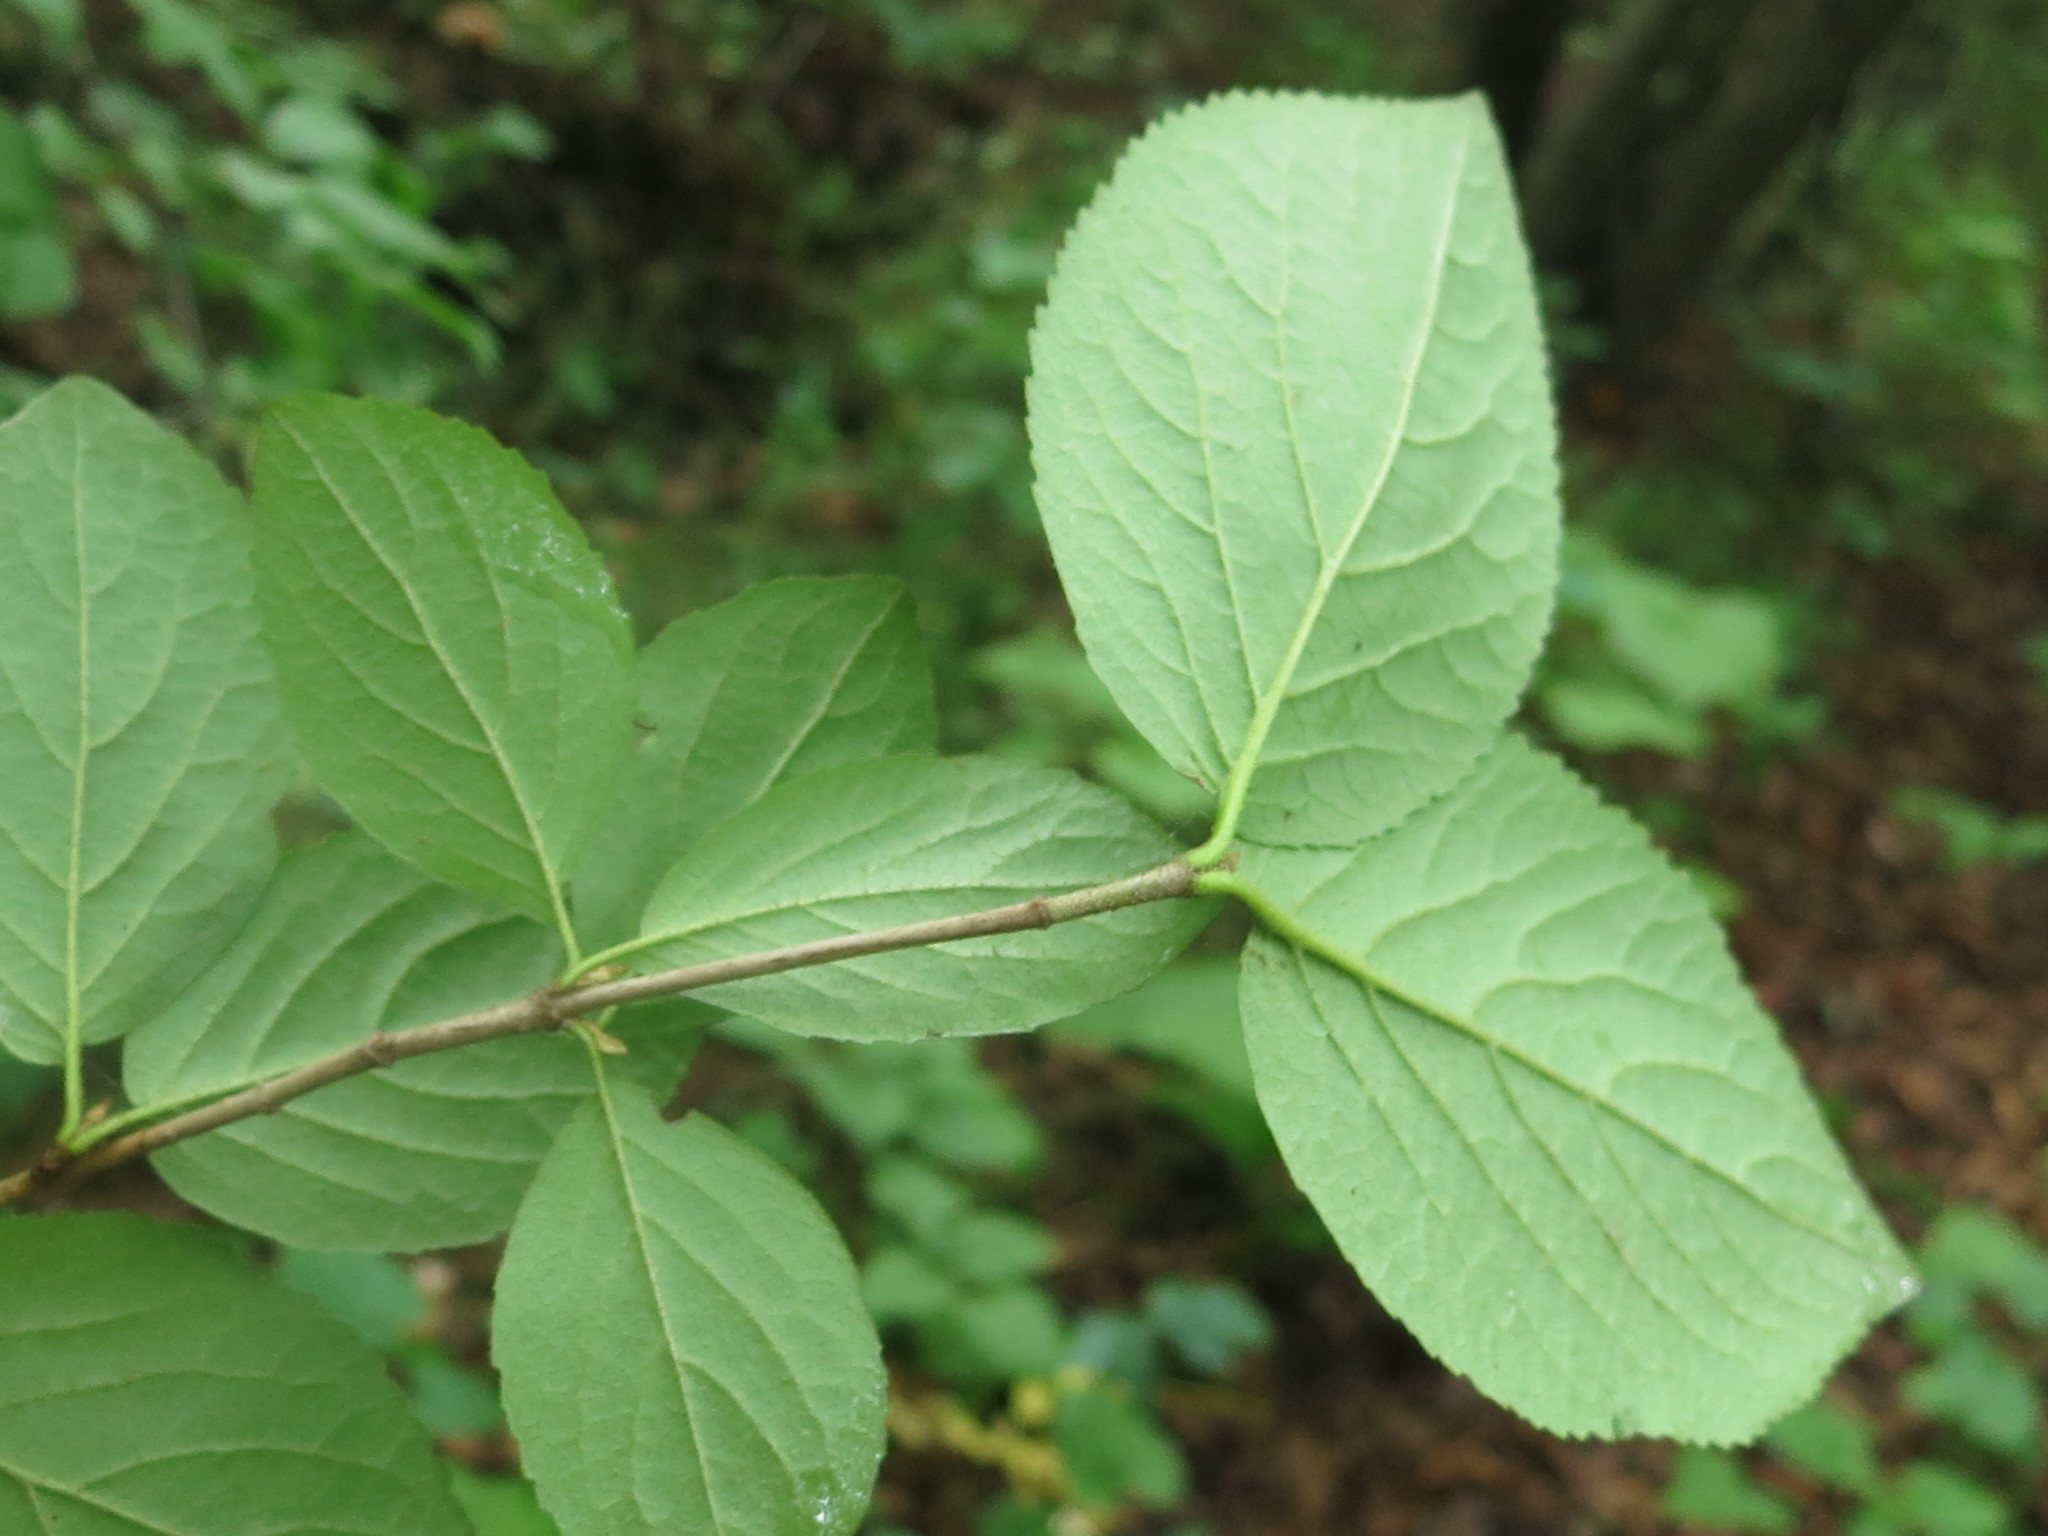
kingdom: Plantae
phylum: Tracheophyta
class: Magnoliopsida
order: Dipsacales
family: Viburnaceae
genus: Viburnum
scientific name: Viburnum burejaeticum
